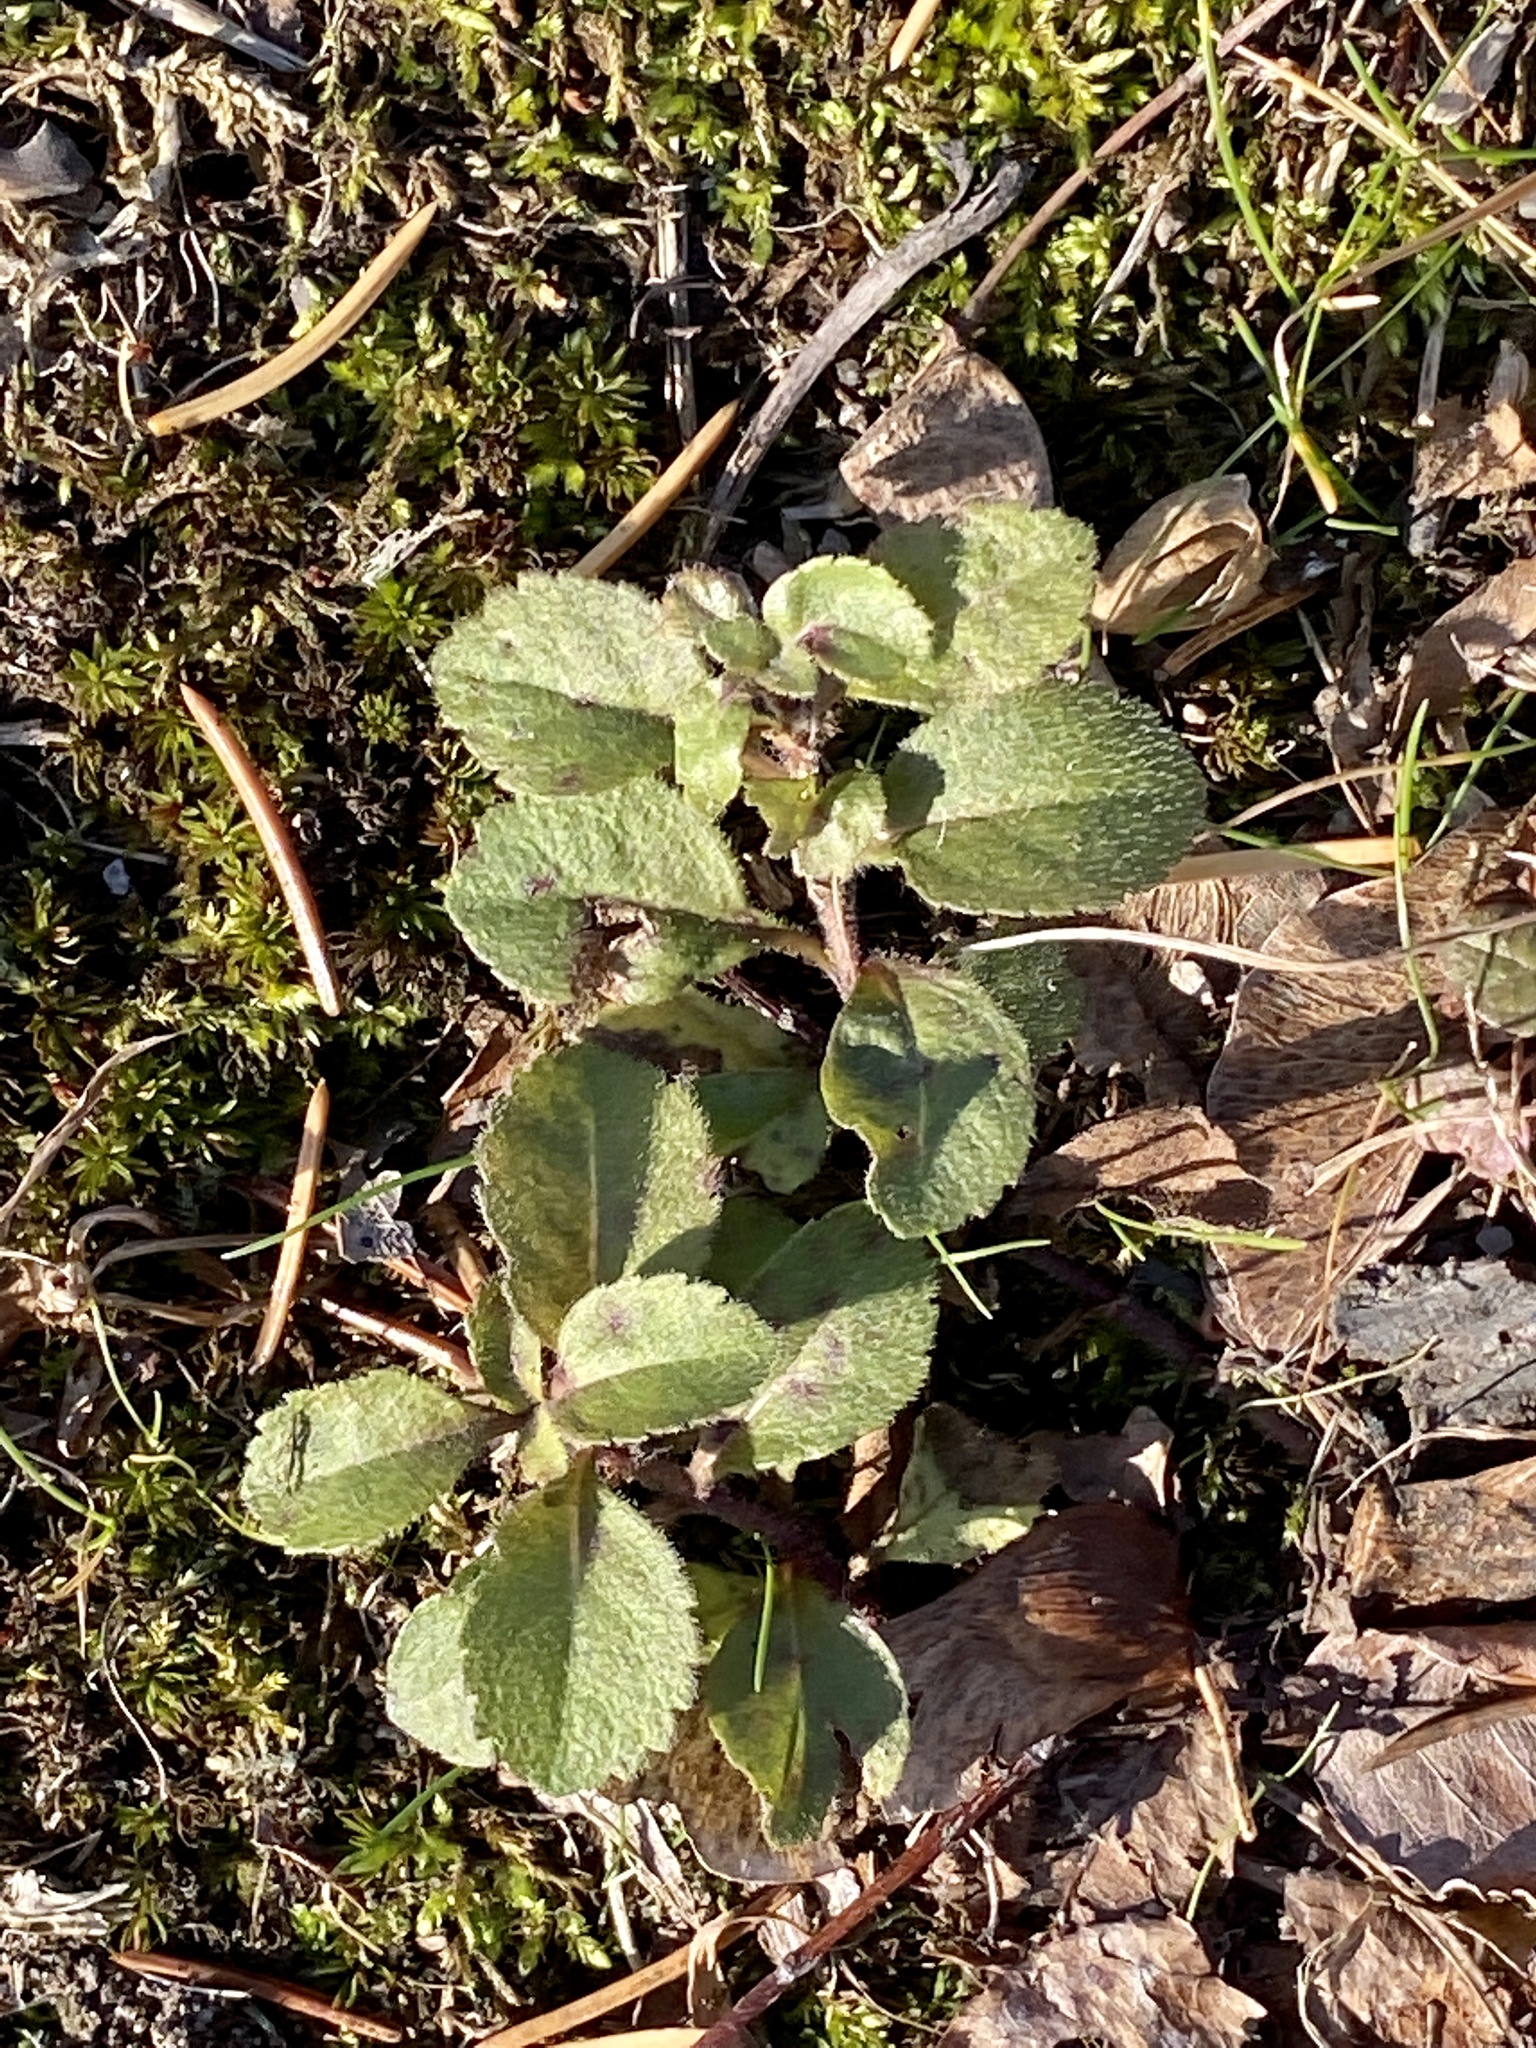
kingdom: Plantae
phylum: Tracheophyta
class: Magnoliopsida
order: Lamiales
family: Plantaginaceae
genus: Veronica
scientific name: Veronica officinalis
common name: Common speedwell
